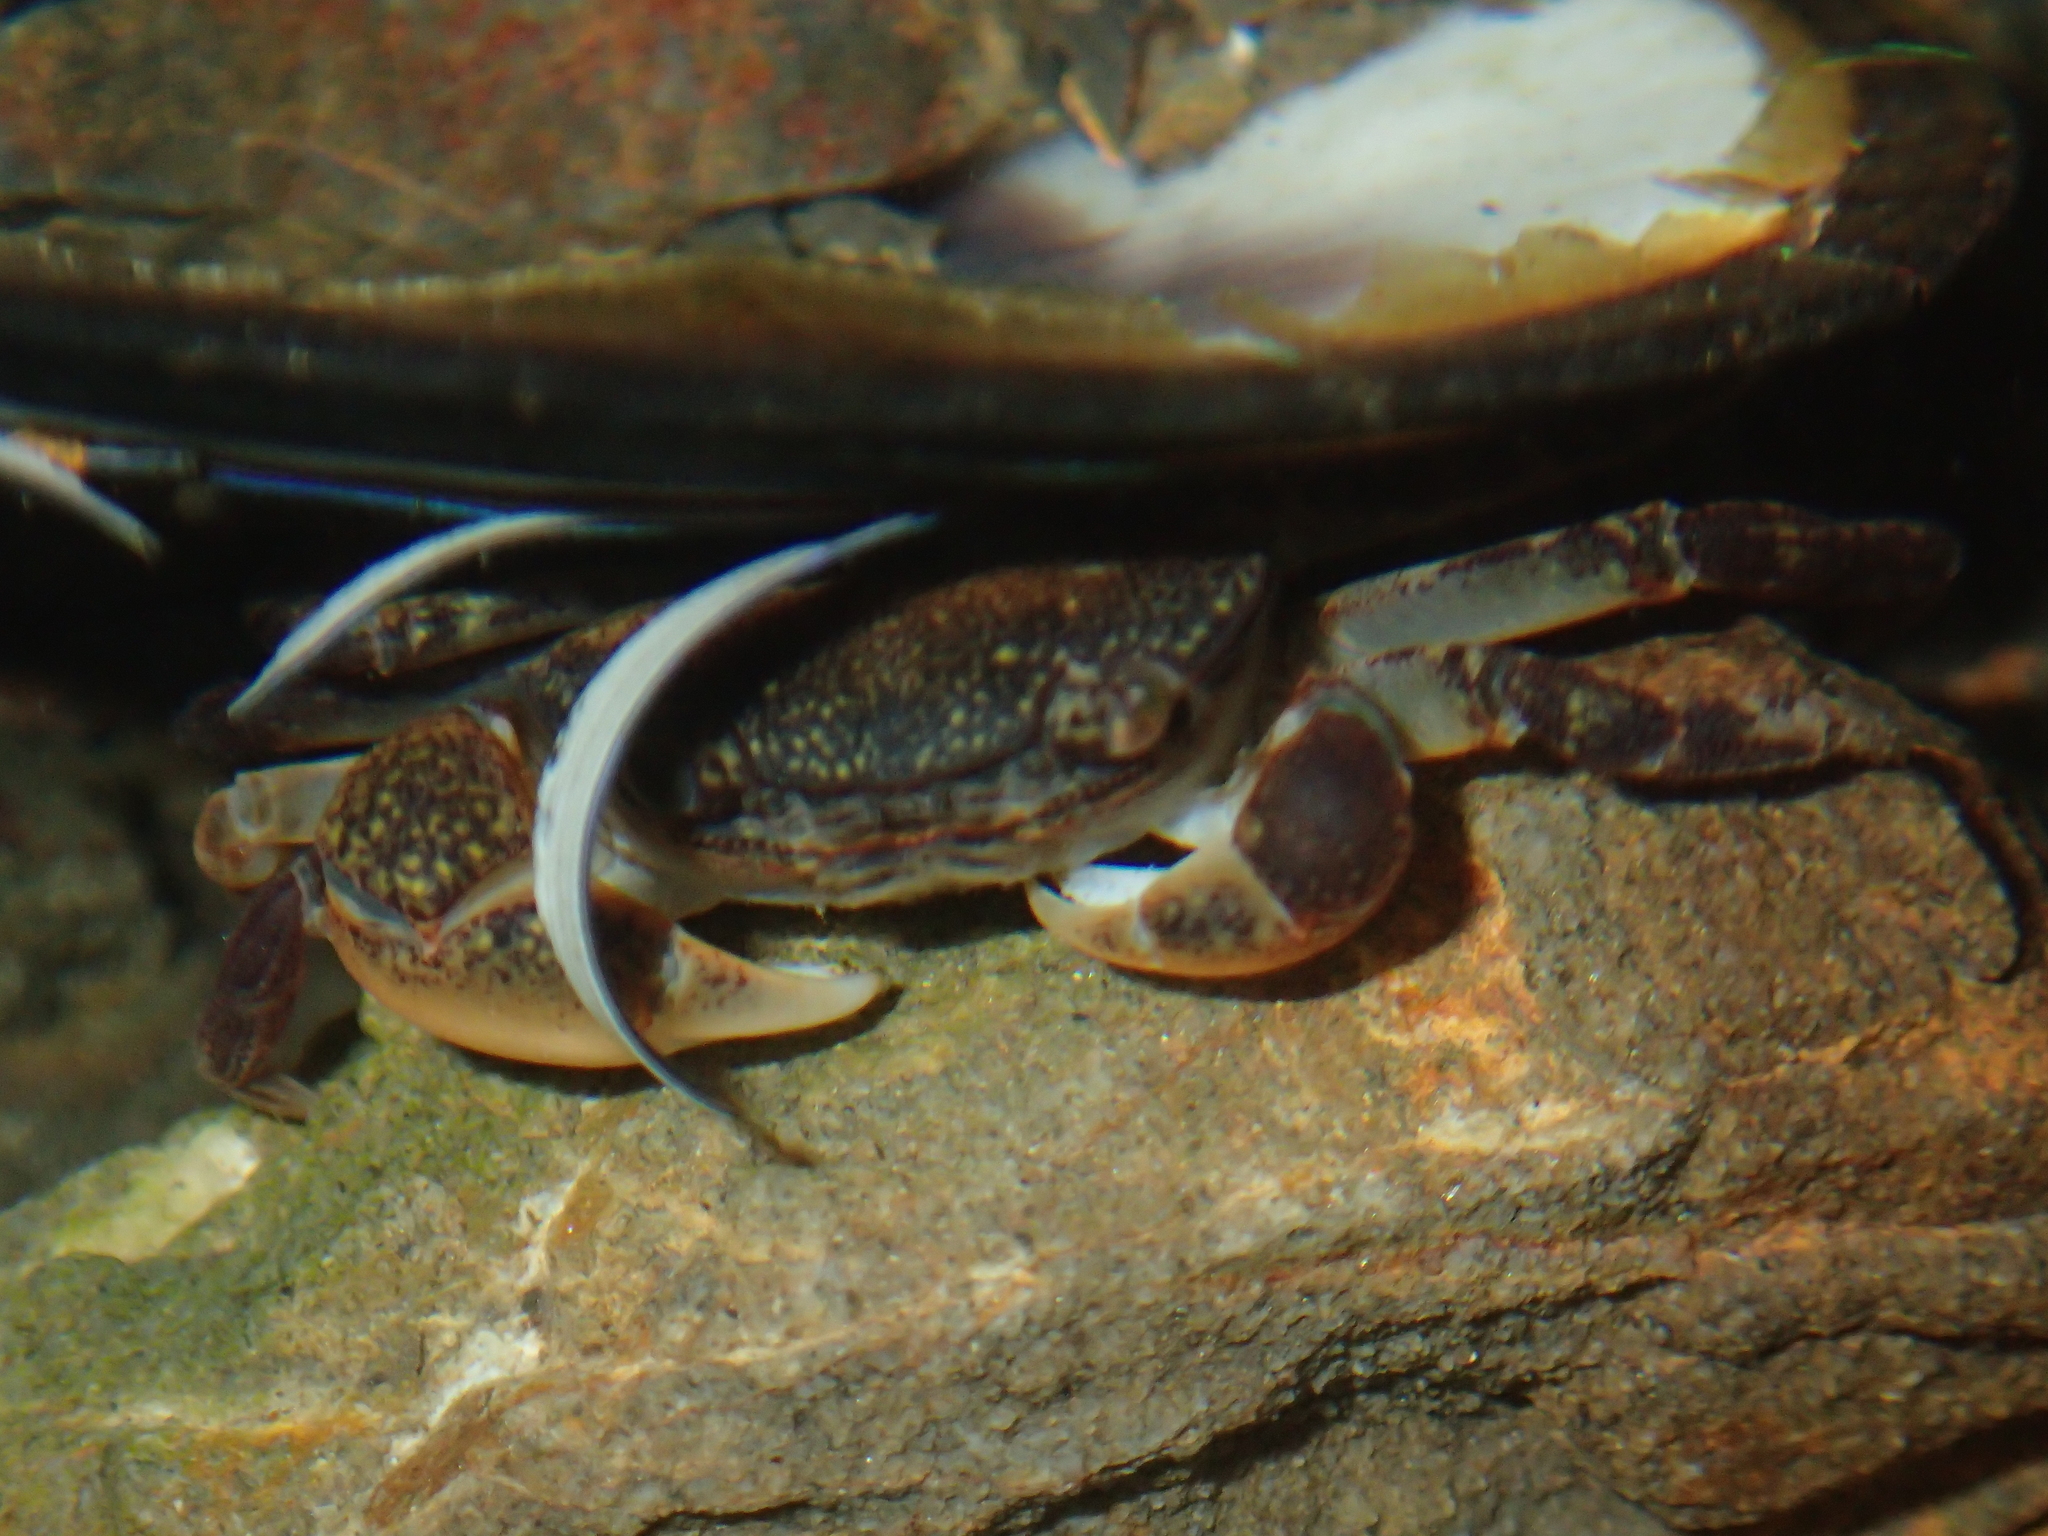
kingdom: Animalia
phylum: Arthropoda
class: Malacostraca
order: Decapoda
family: Varunidae
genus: Cyclograpsus
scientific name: Cyclograpsus lavauxi
